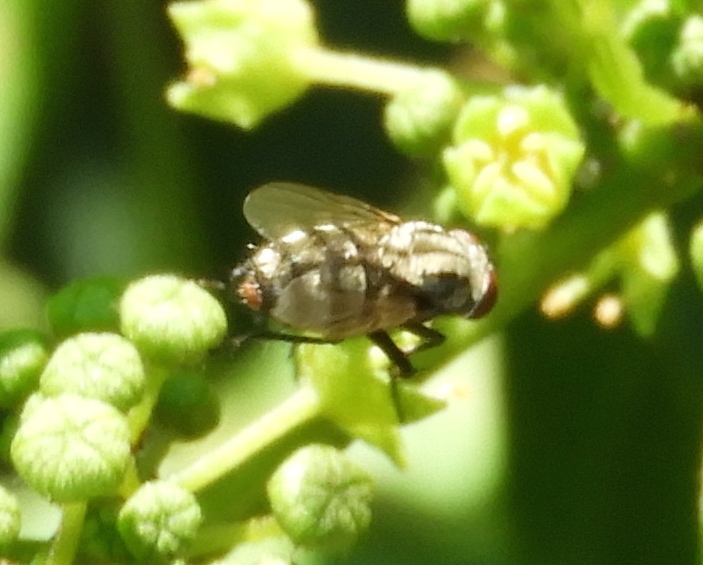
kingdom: Animalia
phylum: Arthropoda
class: Insecta
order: Diptera
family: Sarcophagidae
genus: Sarcophaga
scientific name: Sarcophaga
